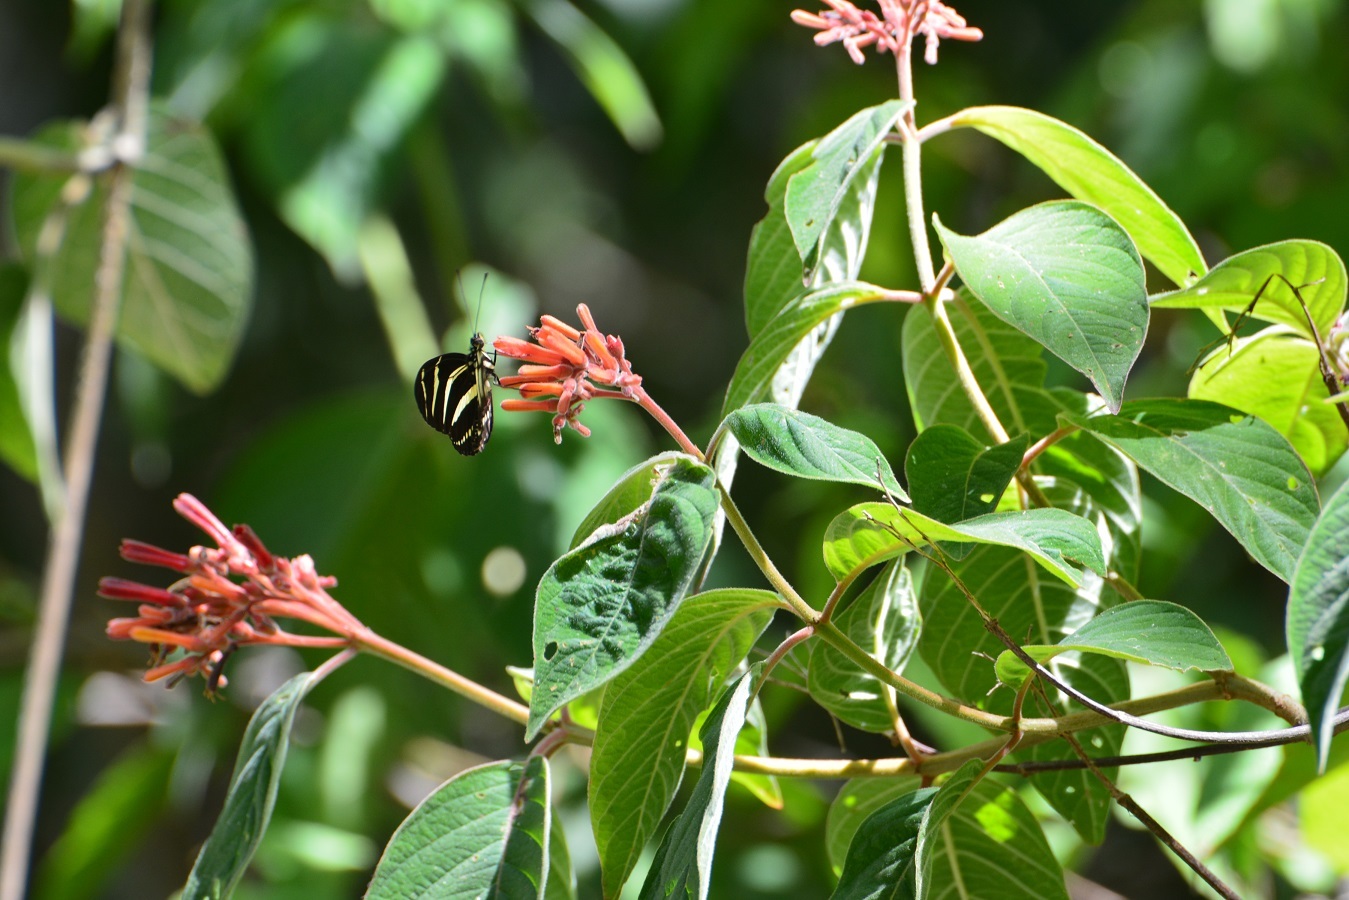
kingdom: Plantae
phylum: Tracheophyta
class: Magnoliopsida
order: Gentianales
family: Rubiaceae
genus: Hamelia
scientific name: Hamelia patens
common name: Redhead
